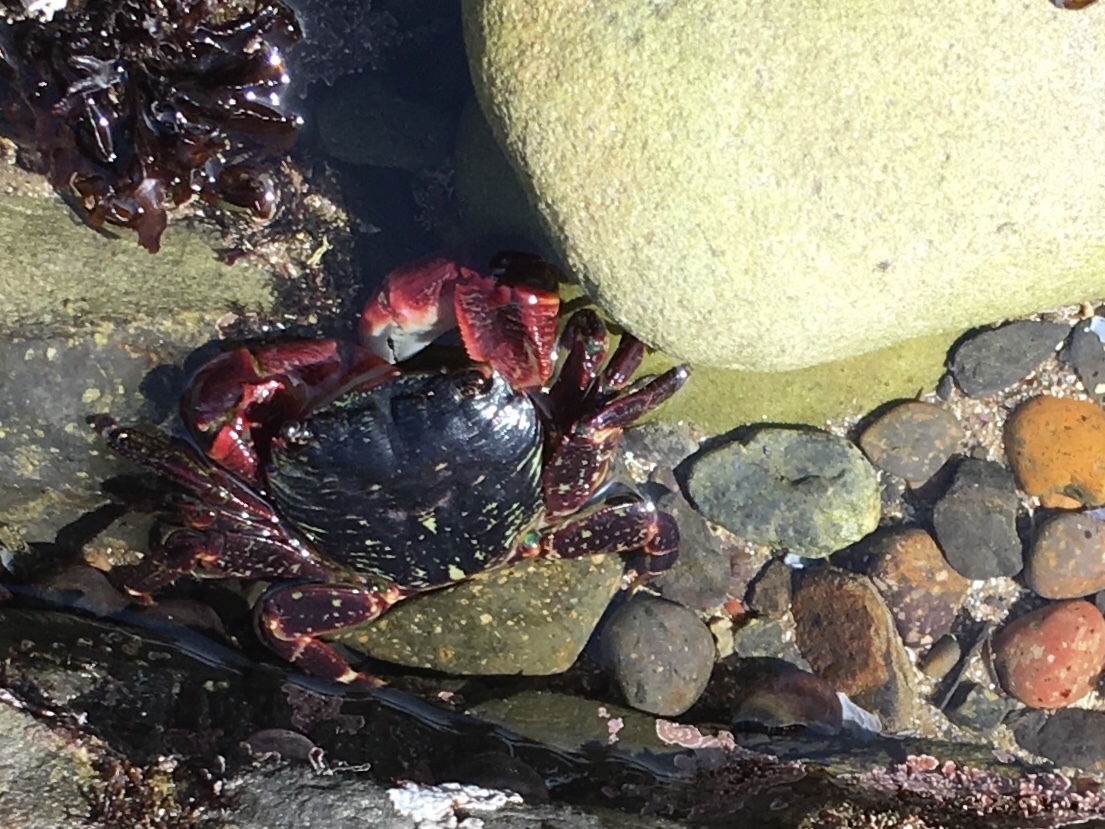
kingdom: Animalia
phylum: Arthropoda
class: Malacostraca
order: Decapoda
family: Grapsidae
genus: Pachygrapsus
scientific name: Pachygrapsus crassipes
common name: Striped shore crab
